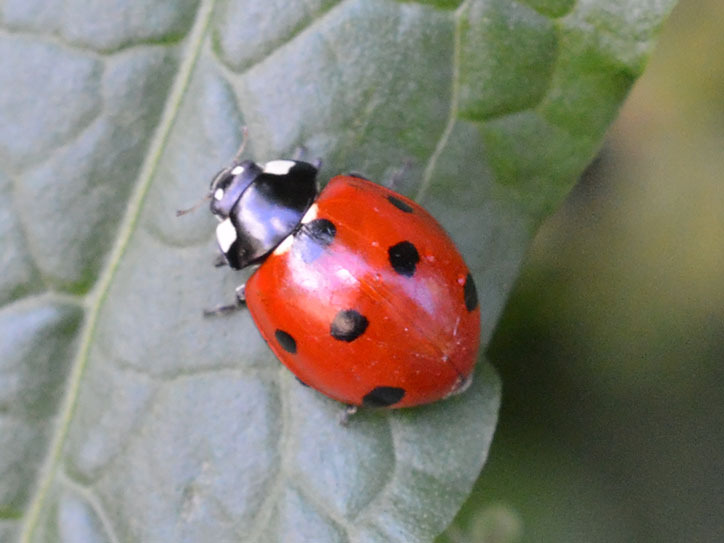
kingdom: Animalia
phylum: Arthropoda
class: Insecta
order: Coleoptera
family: Coccinellidae
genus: Coccinella
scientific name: Coccinella septempunctata
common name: Sevenspotted lady beetle
